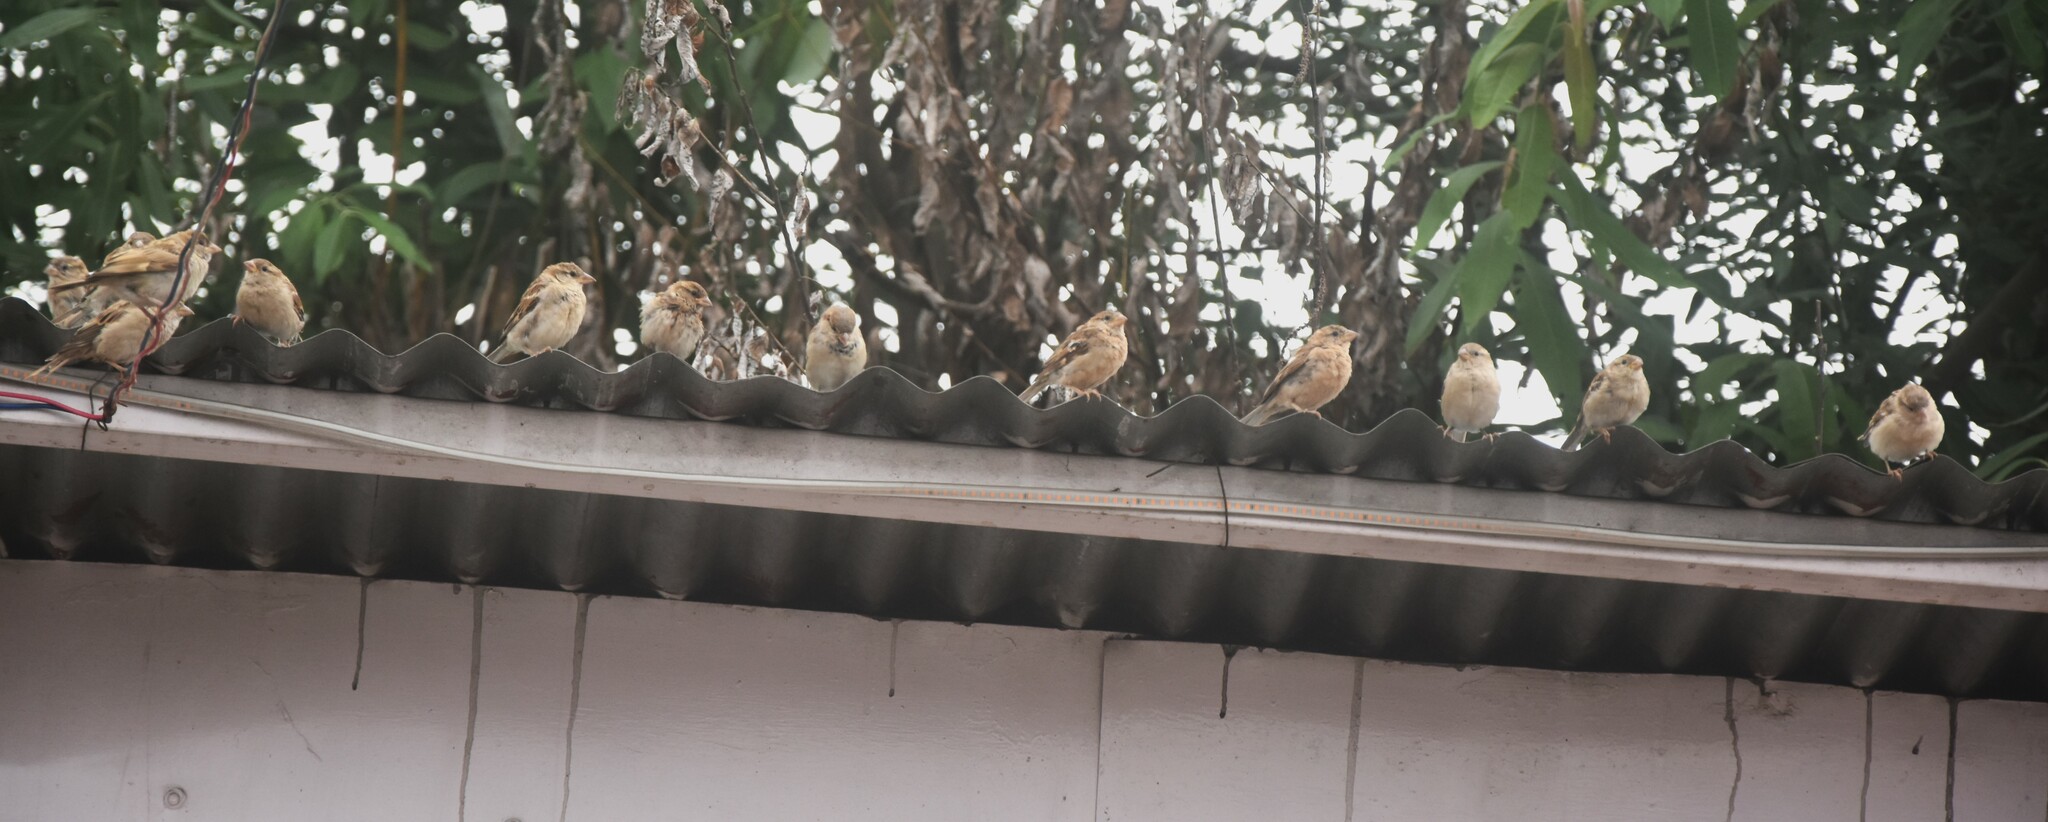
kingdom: Animalia
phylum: Chordata
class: Aves
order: Passeriformes
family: Passeridae
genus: Passer
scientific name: Passer domesticus
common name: House sparrow
